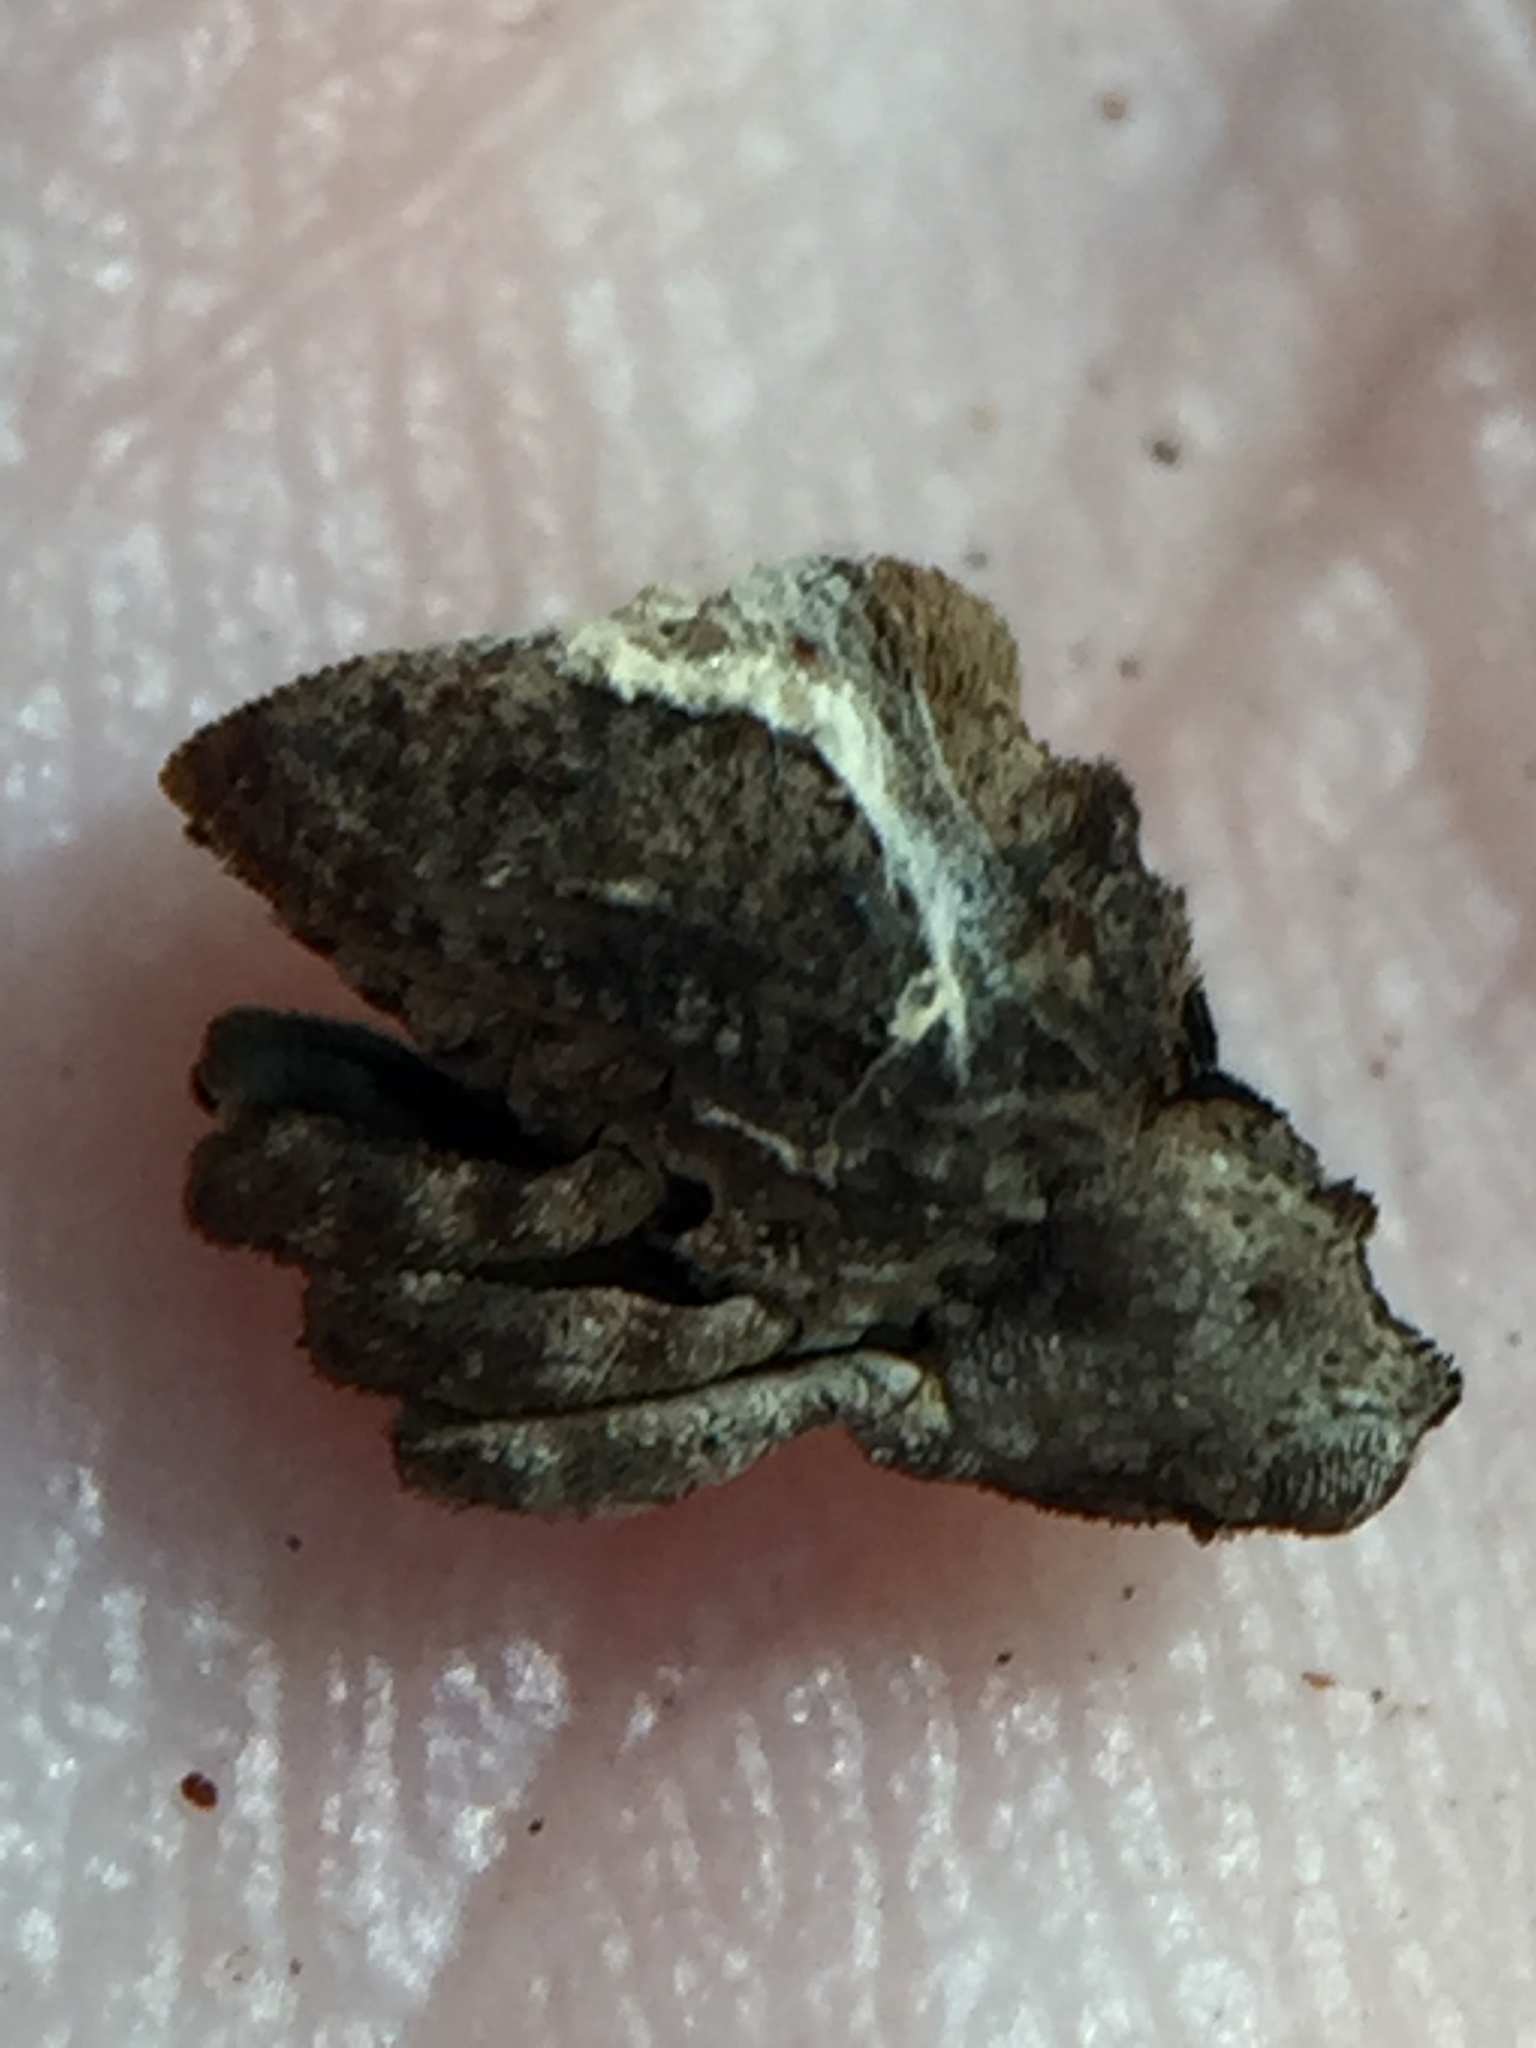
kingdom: Animalia
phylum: Arthropoda
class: Insecta
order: Coleoptera
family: Curculionidae
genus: Crisius
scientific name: Crisius binotatus
